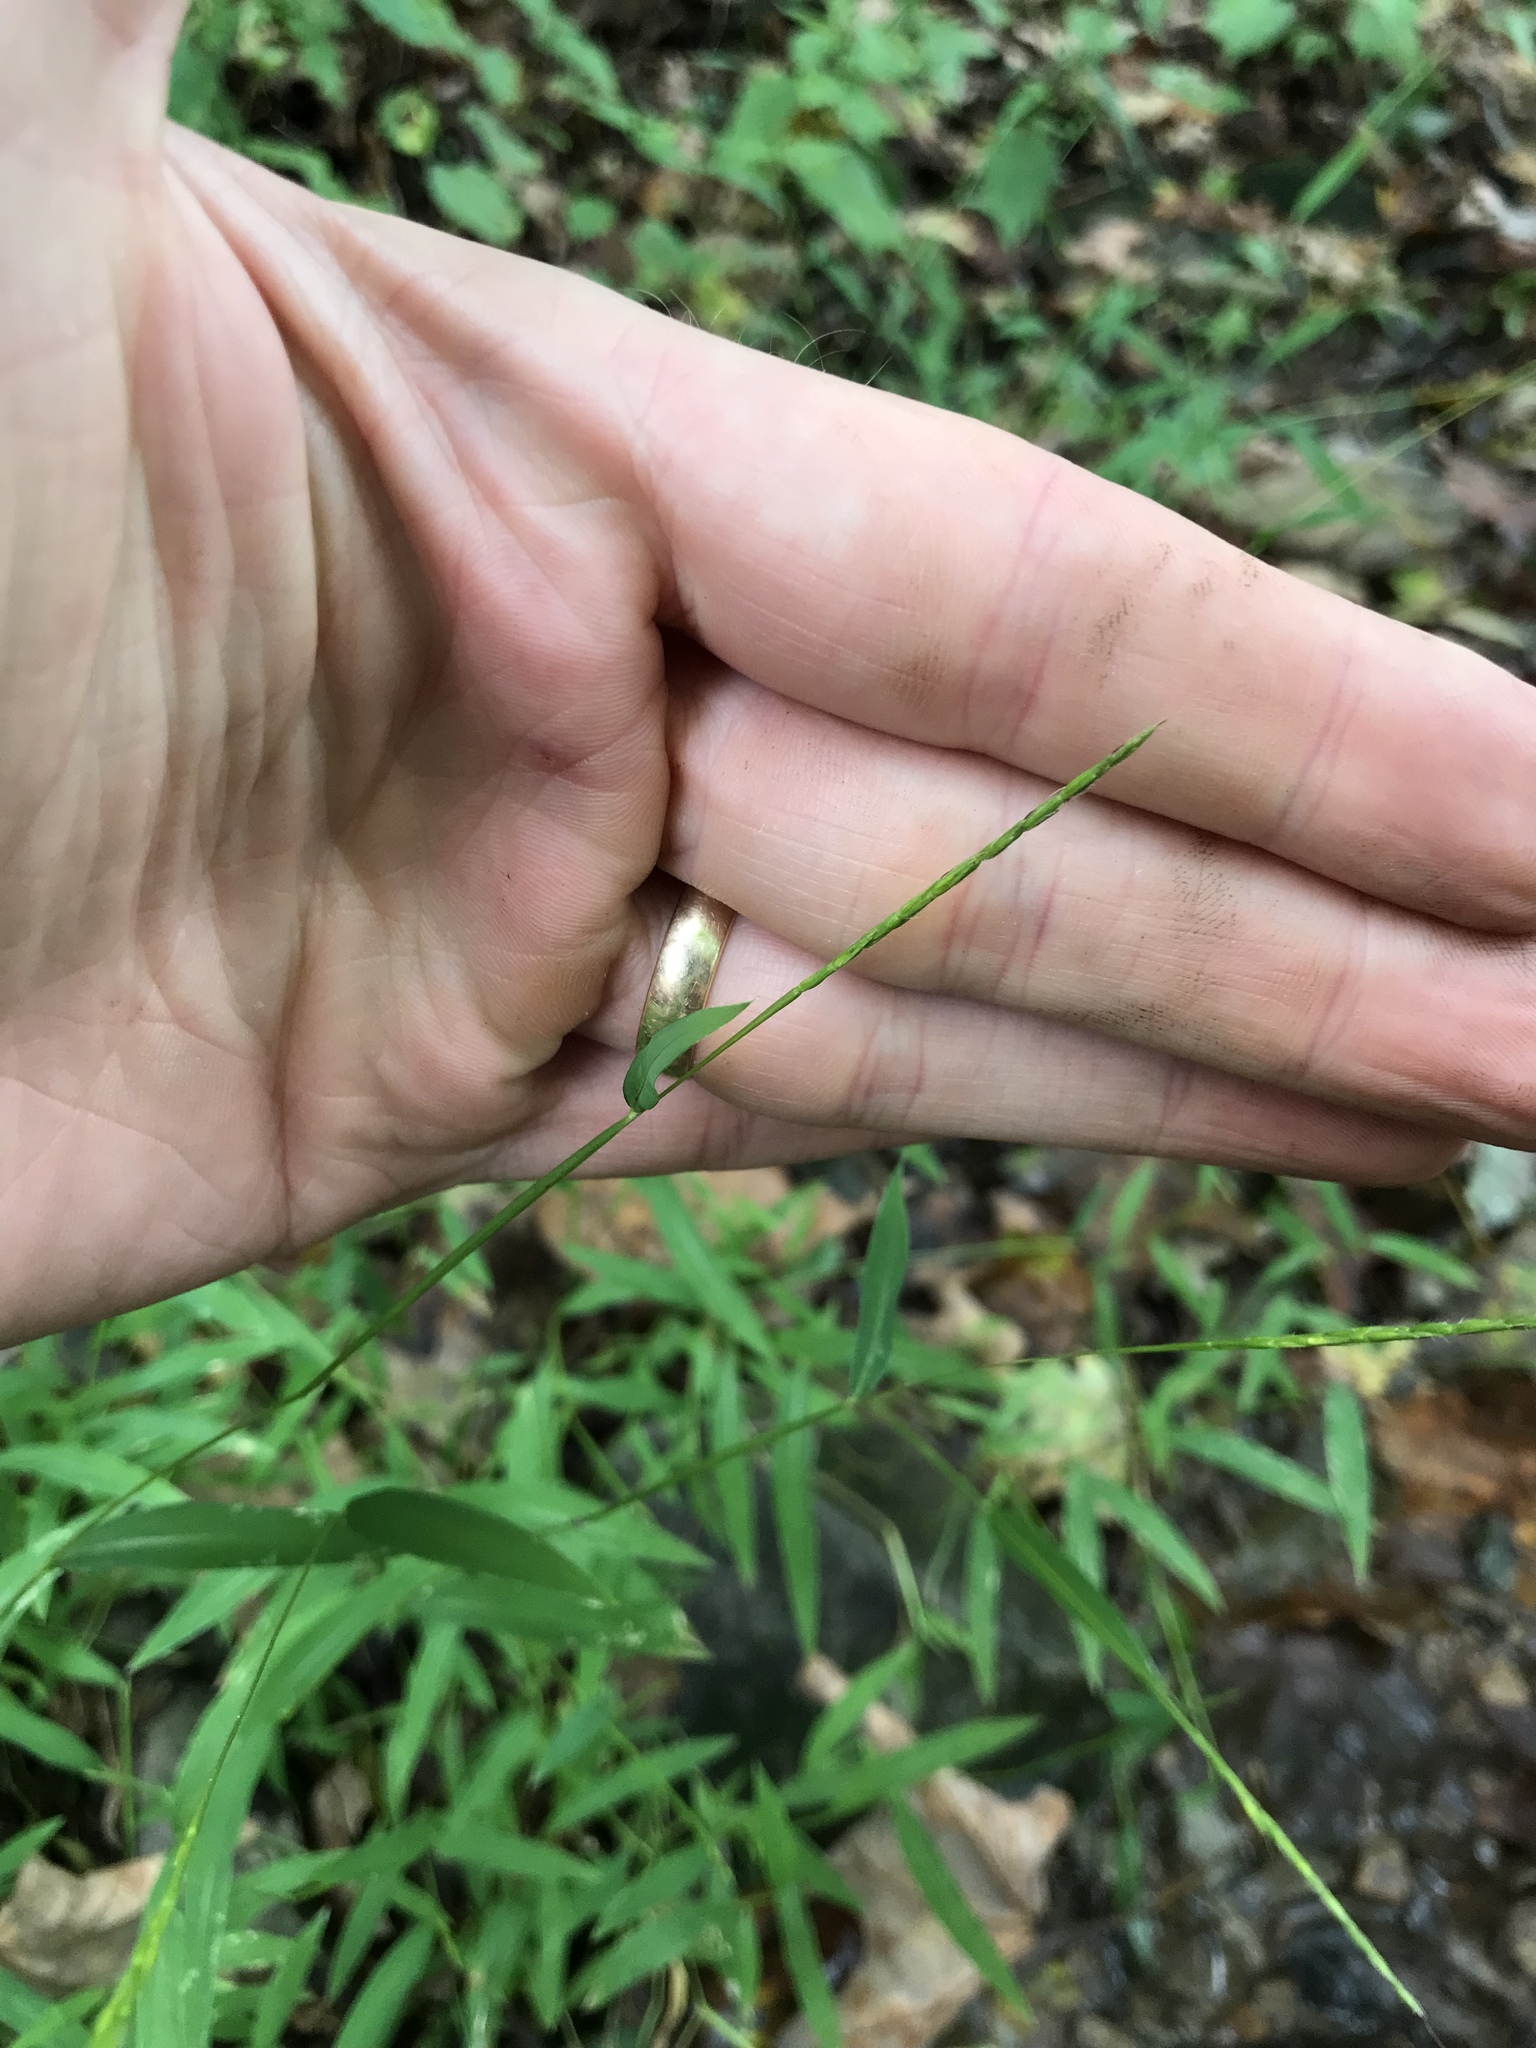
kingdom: Plantae
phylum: Tracheophyta
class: Liliopsida
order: Poales
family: Poaceae
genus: Microstegium
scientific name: Microstegium vimineum
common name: Japanese stiltgrass
